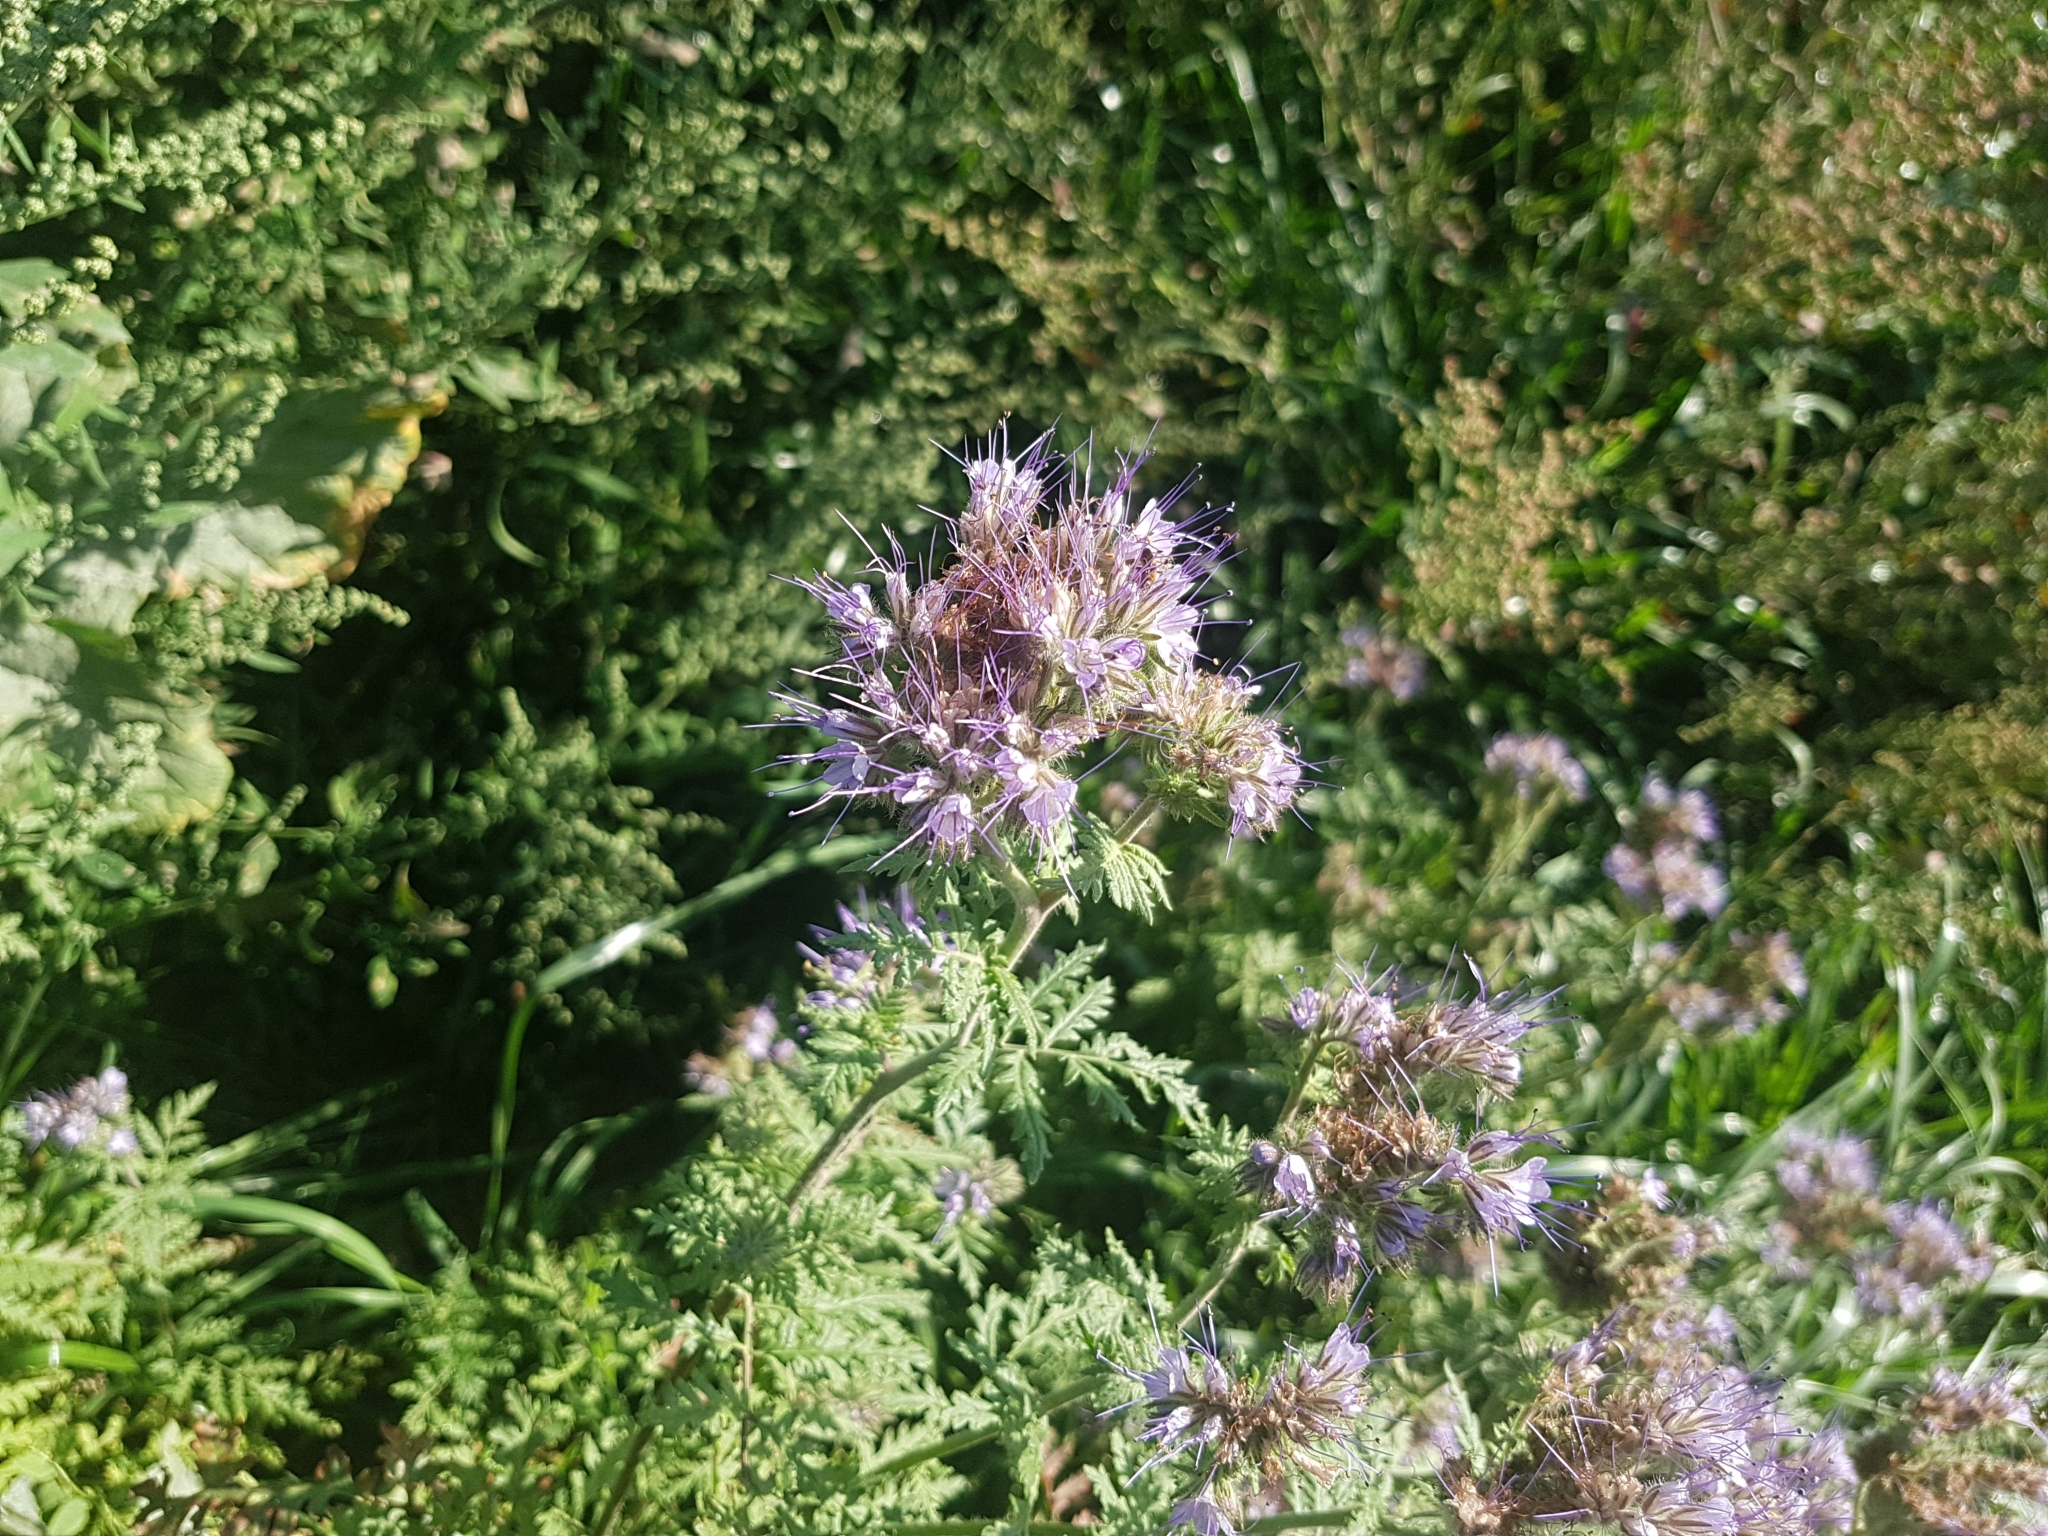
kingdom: Plantae
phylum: Tracheophyta
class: Magnoliopsida
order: Boraginales
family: Hydrophyllaceae
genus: Phacelia
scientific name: Phacelia tanacetifolia
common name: Phacelia
